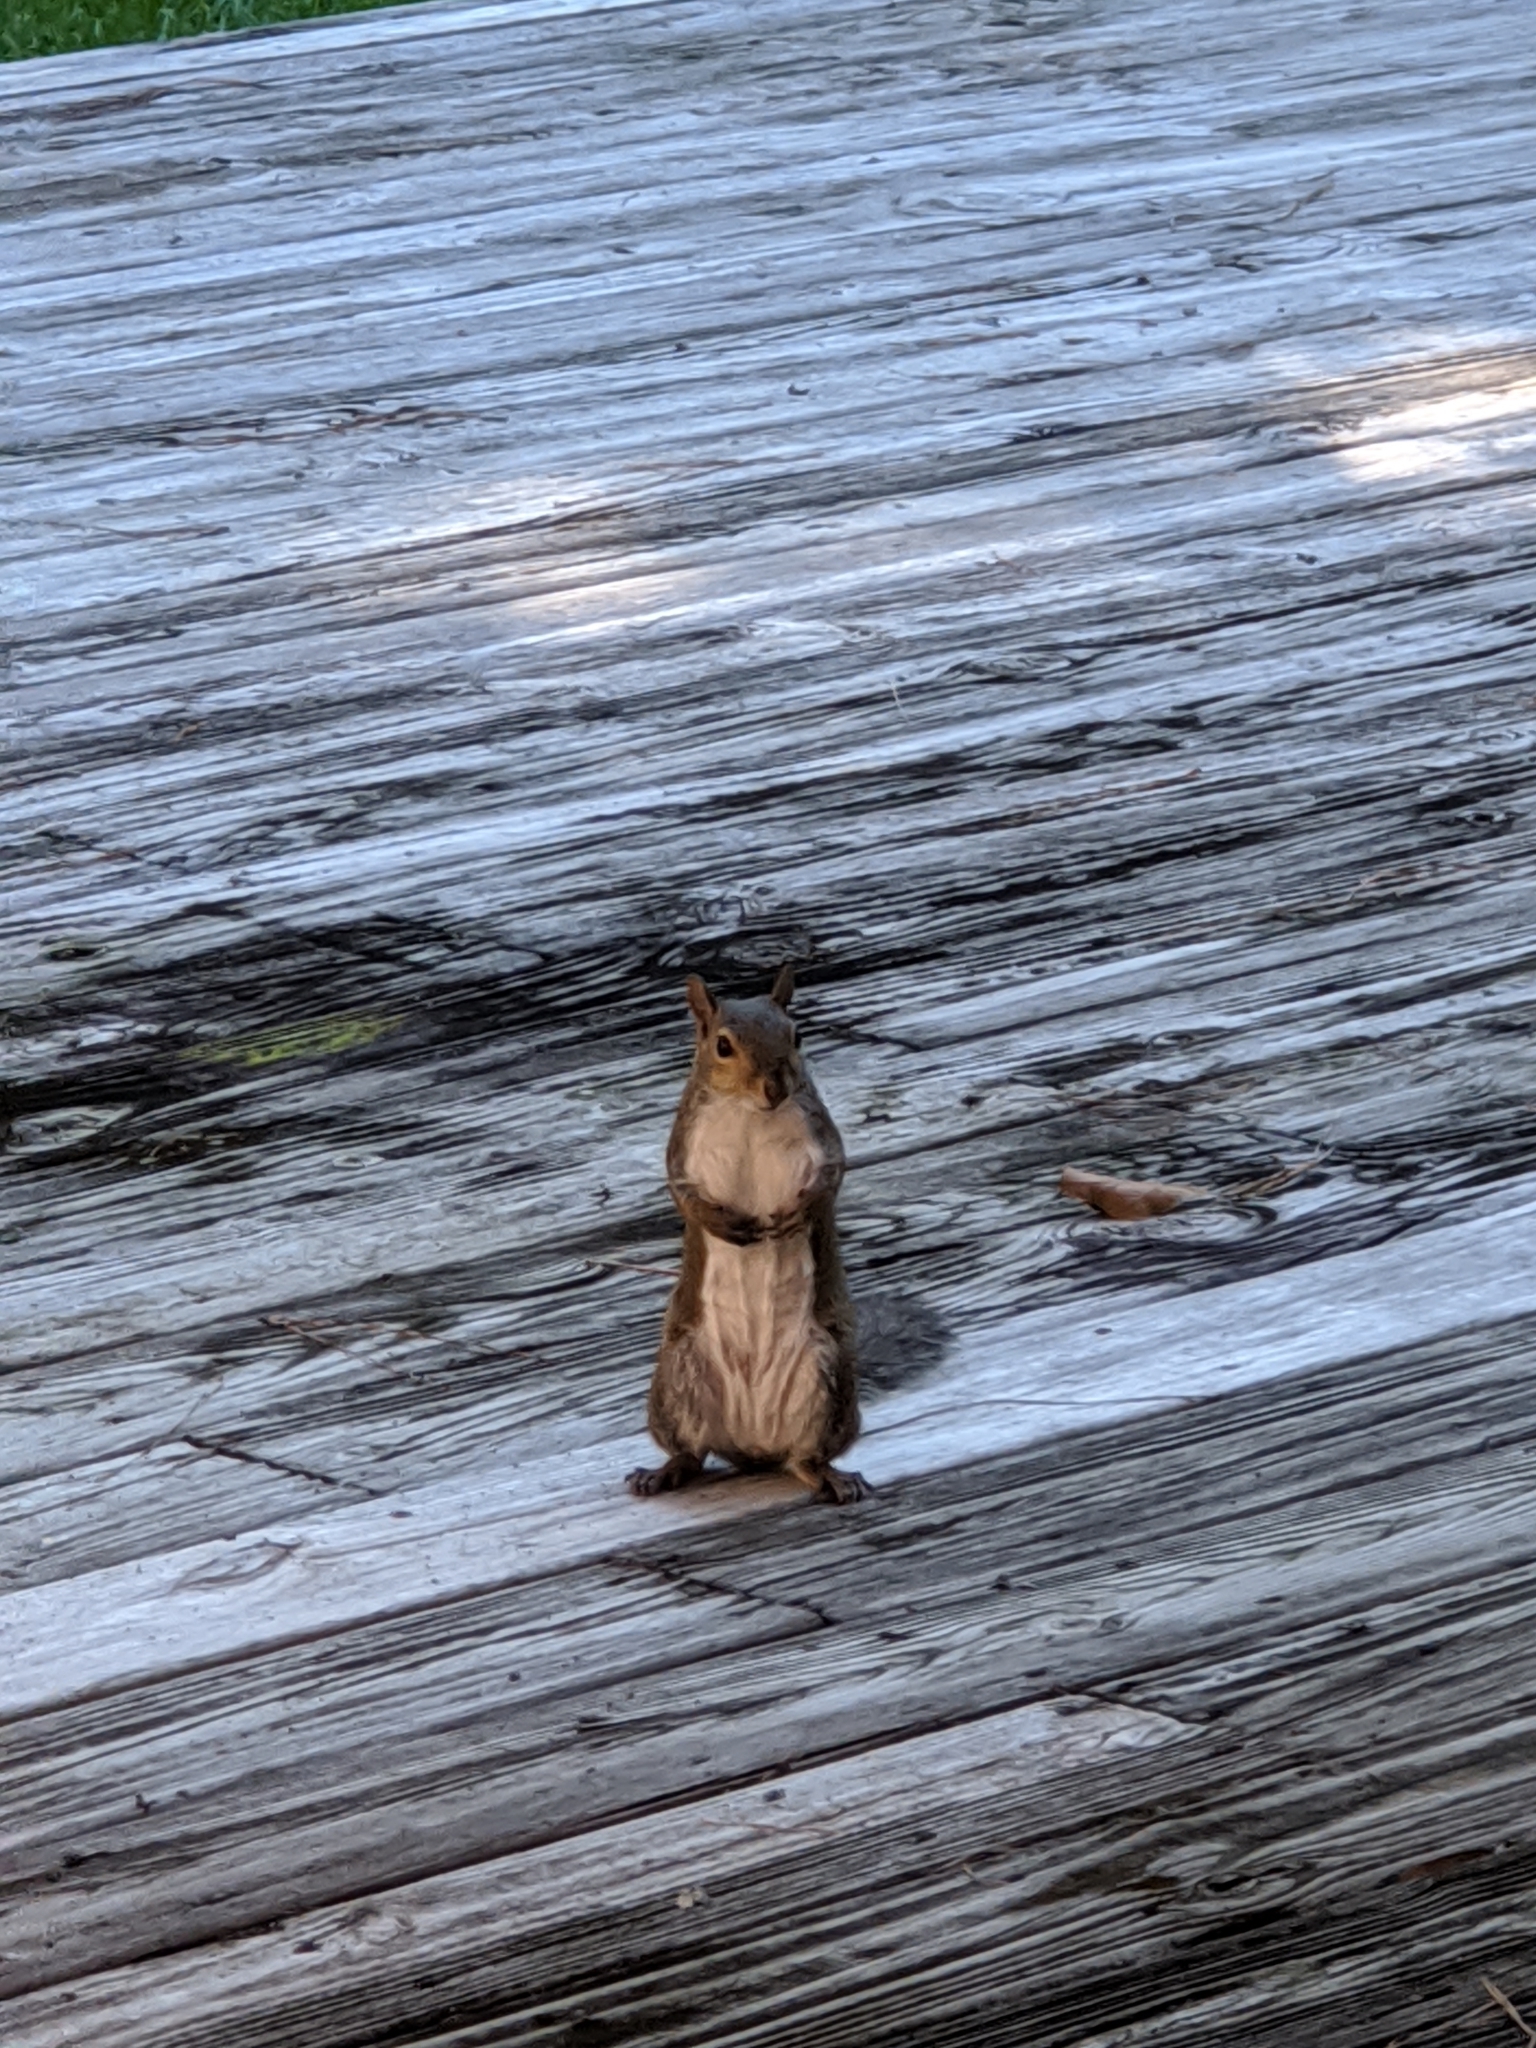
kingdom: Animalia
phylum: Chordata
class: Mammalia
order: Rodentia
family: Sciuridae
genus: Sciurus
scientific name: Sciurus carolinensis
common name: Eastern gray squirrel
